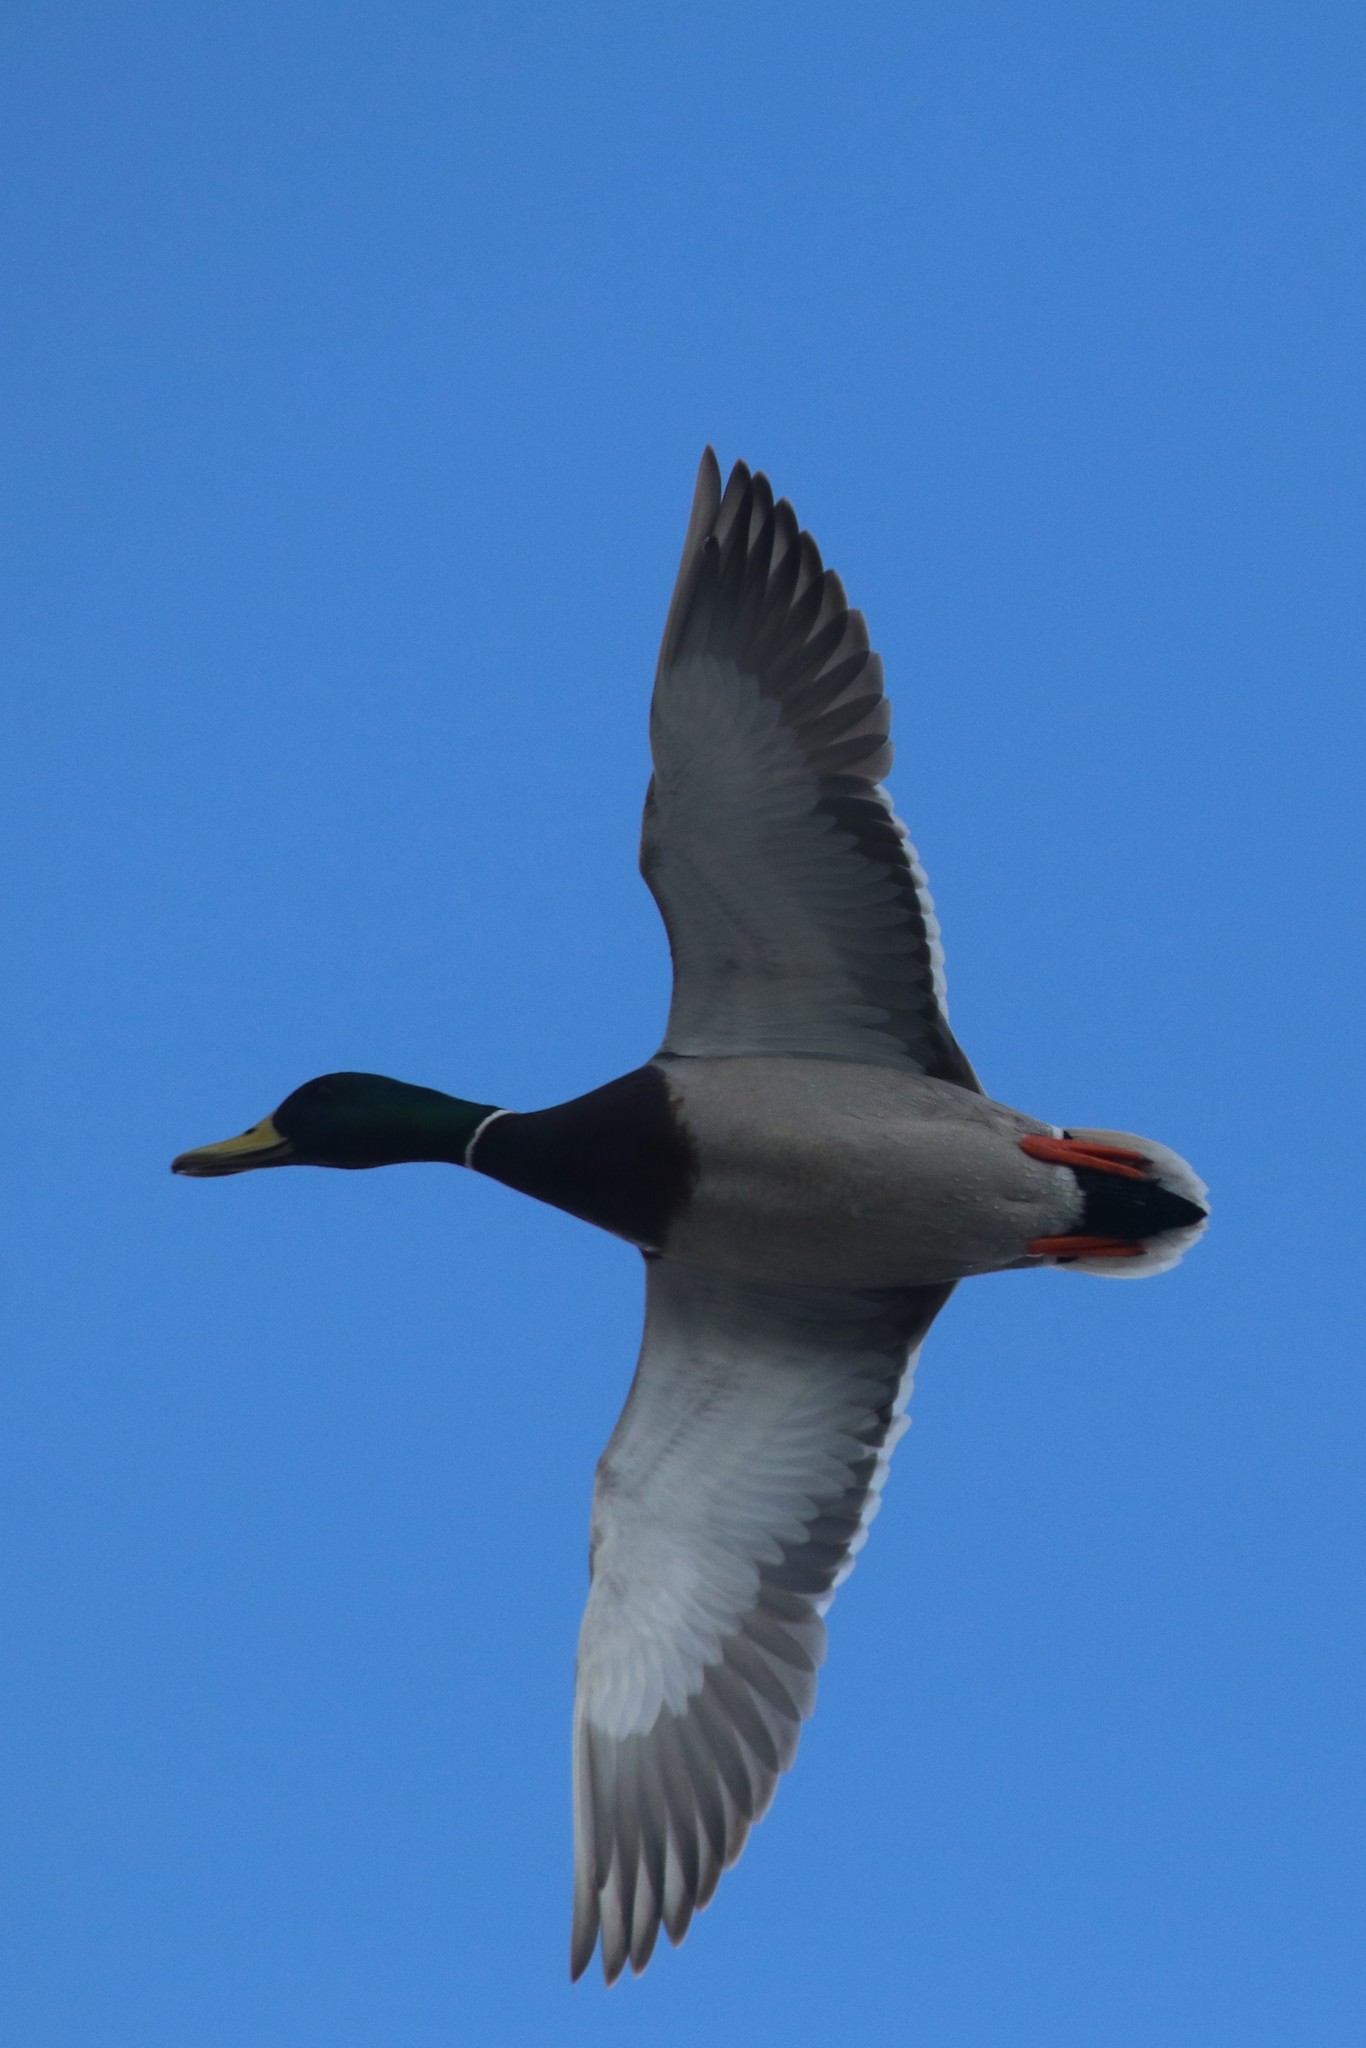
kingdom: Animalia
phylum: Chordata
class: Aves
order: Anseriformes
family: Anatidae
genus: Anas
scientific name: Anas platyrhynchos
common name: Mallard
